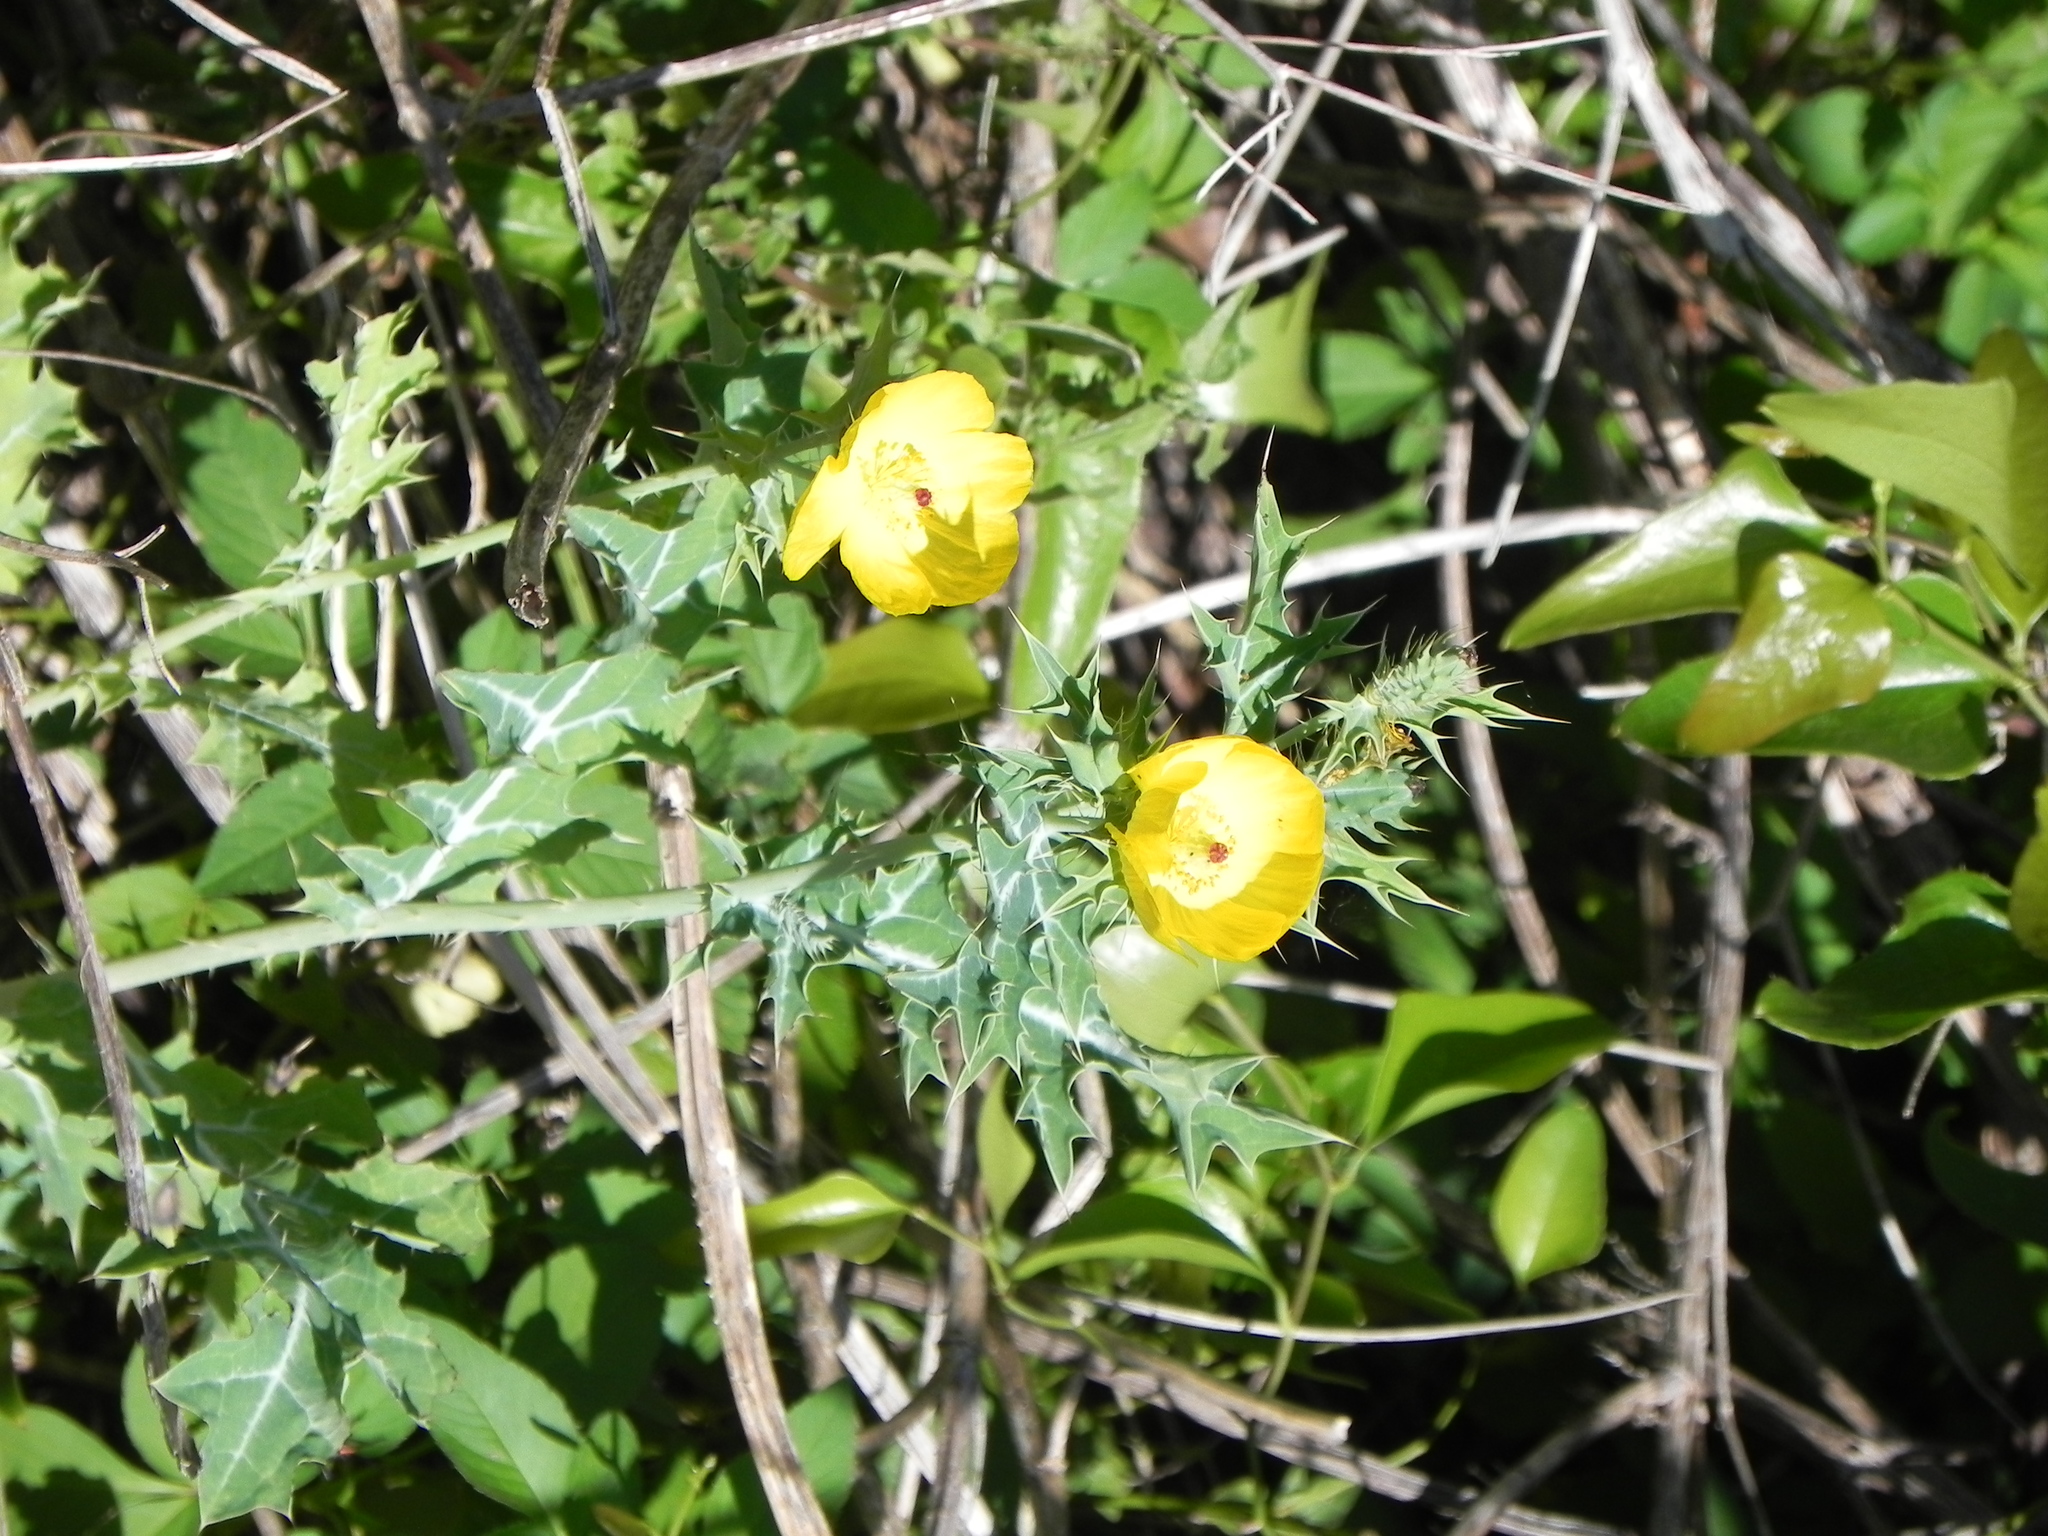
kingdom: Plantae
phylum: Tracheophyta
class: Magnoliopsida
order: Ranunculales
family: Papaveraceae
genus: Argemone
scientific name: Argemone mexicana
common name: Mexican poppy
